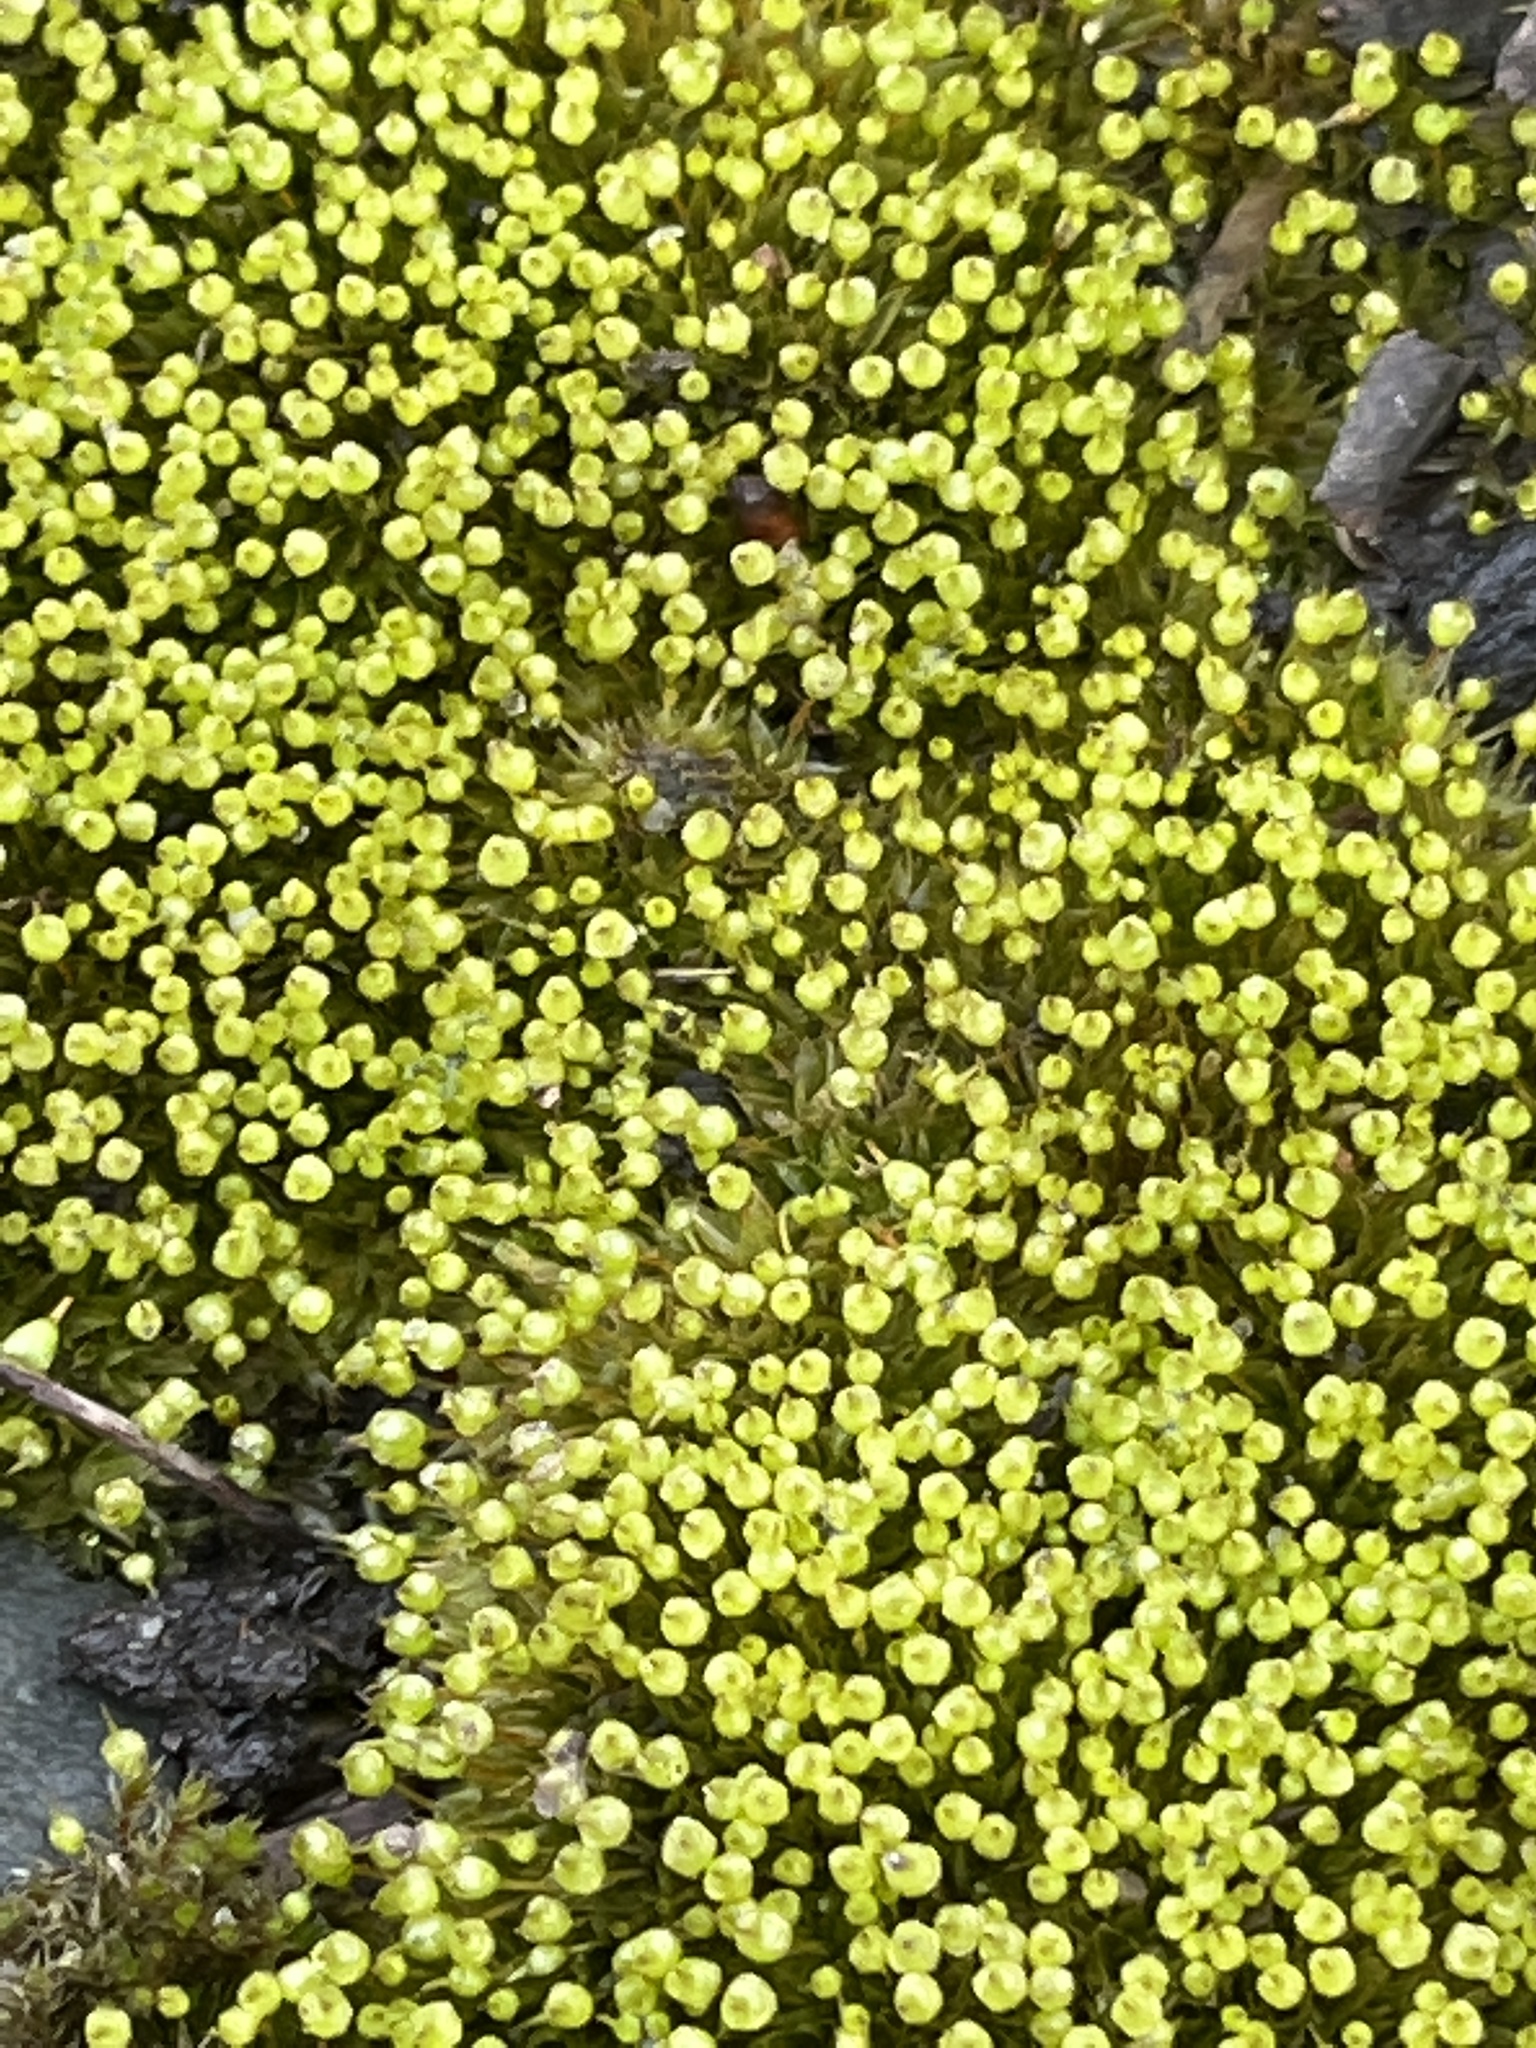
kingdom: Plantae
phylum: Bryophyta
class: Bryopsida
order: Funariales
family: Funariaceae
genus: Physcomitrium
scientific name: Physcomitrium pyriforme
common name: Common bladder-moss
